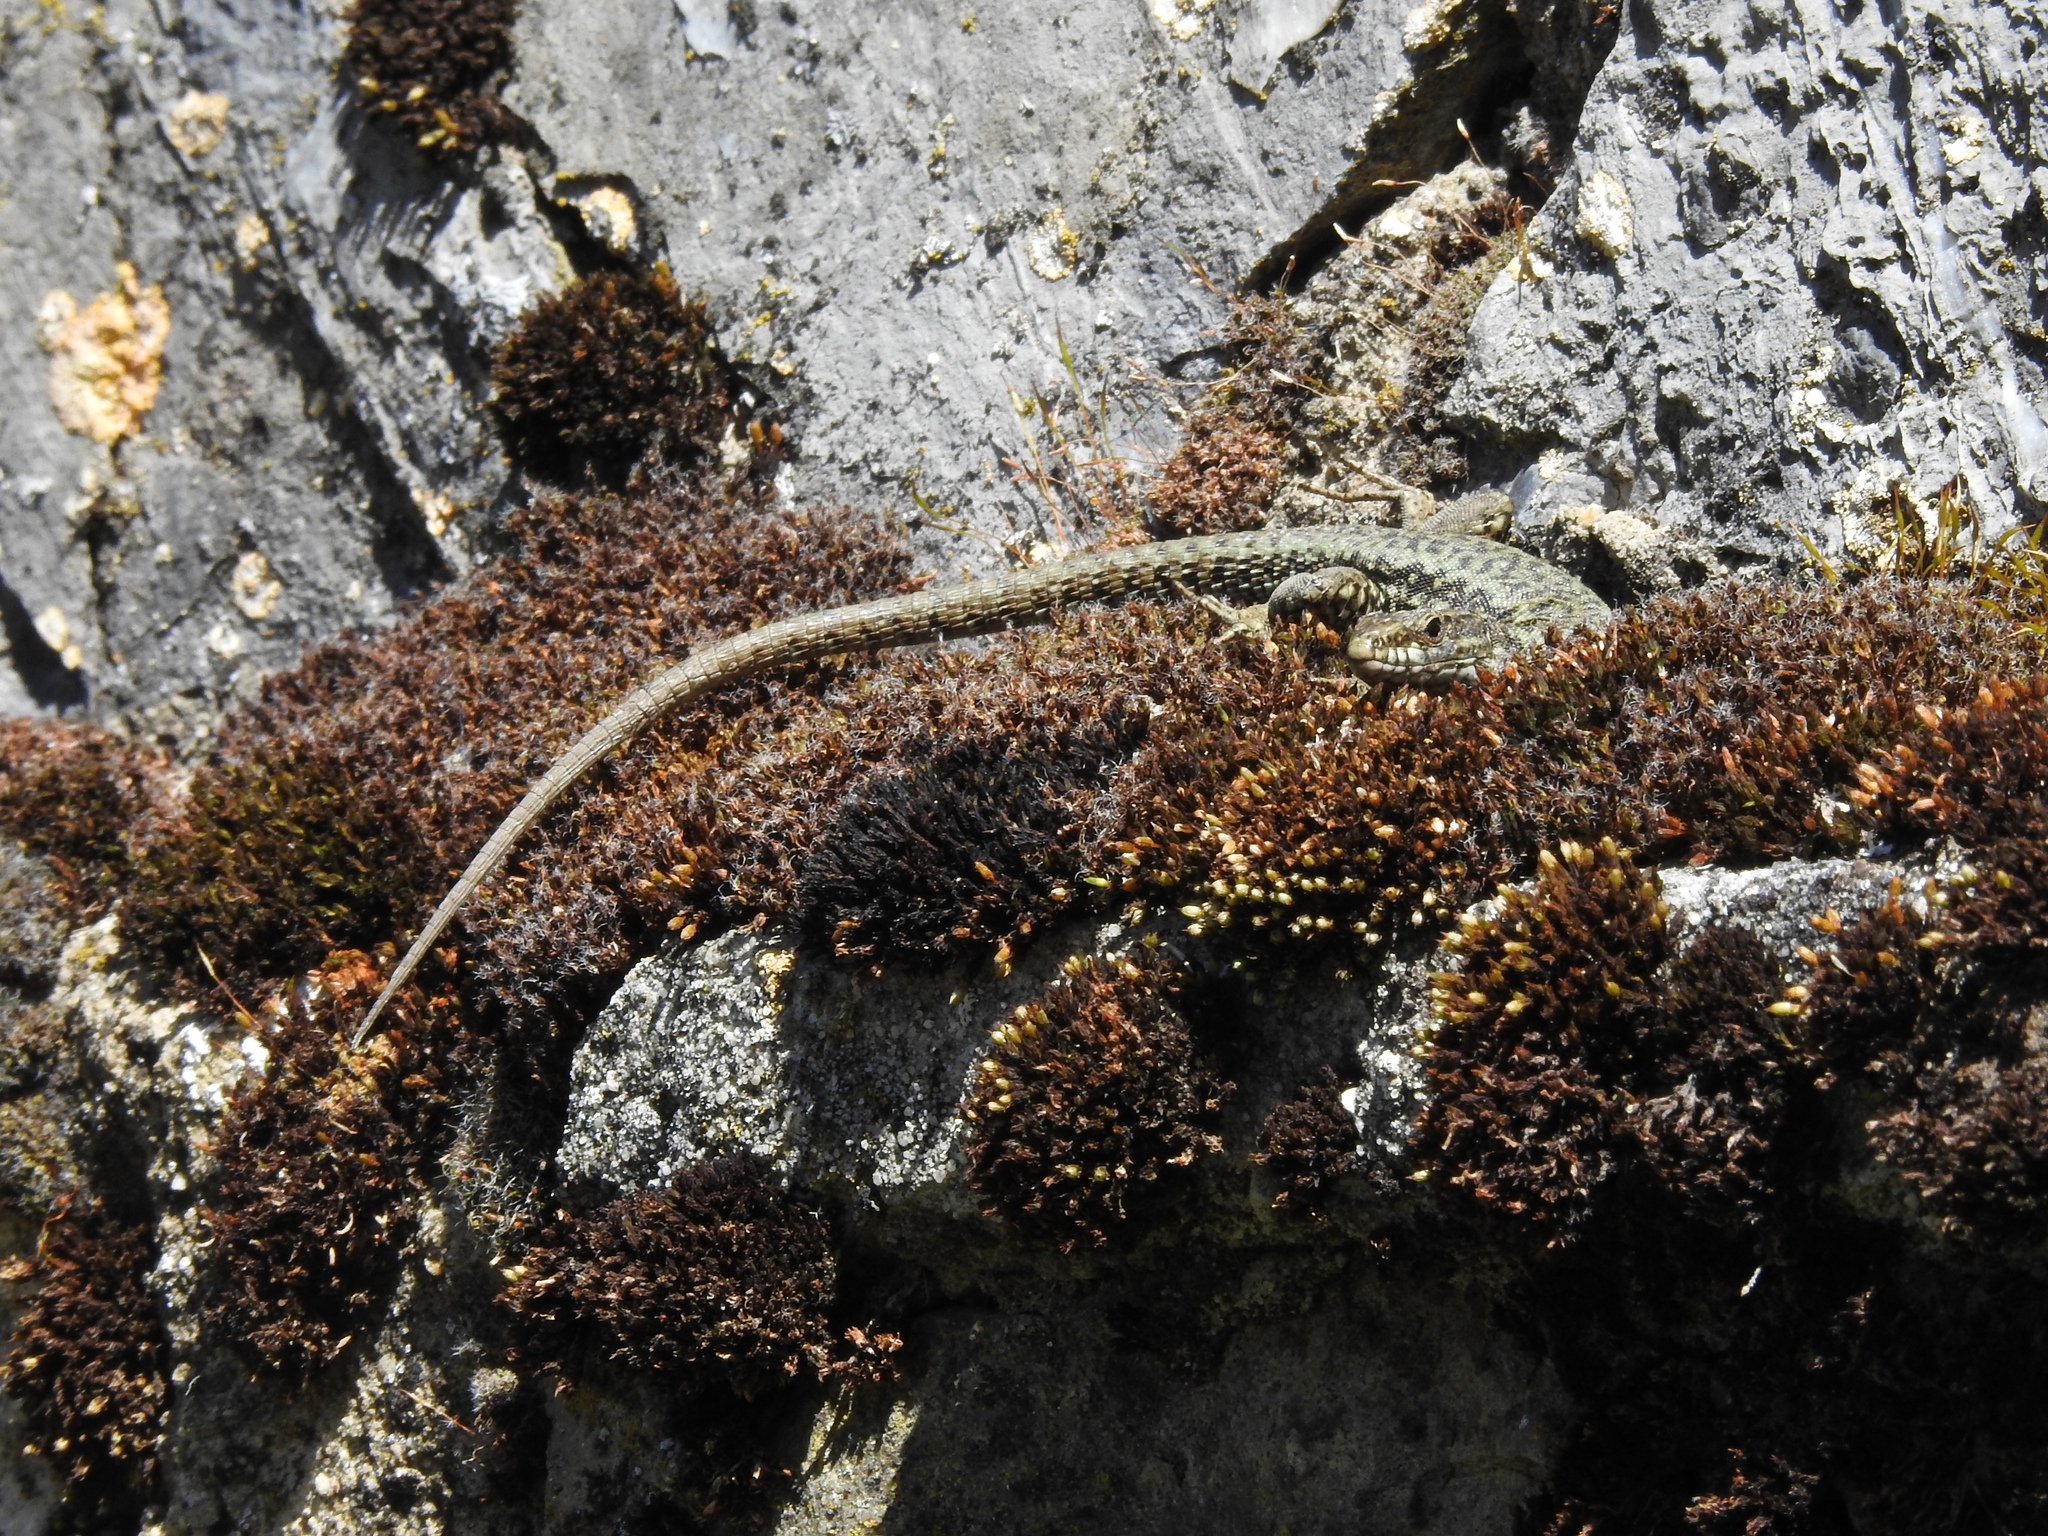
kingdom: Animalia
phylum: Chordata
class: Squamata
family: Lacertidae
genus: Podarcis
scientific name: Podarcis muralis
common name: Common wall lizard
